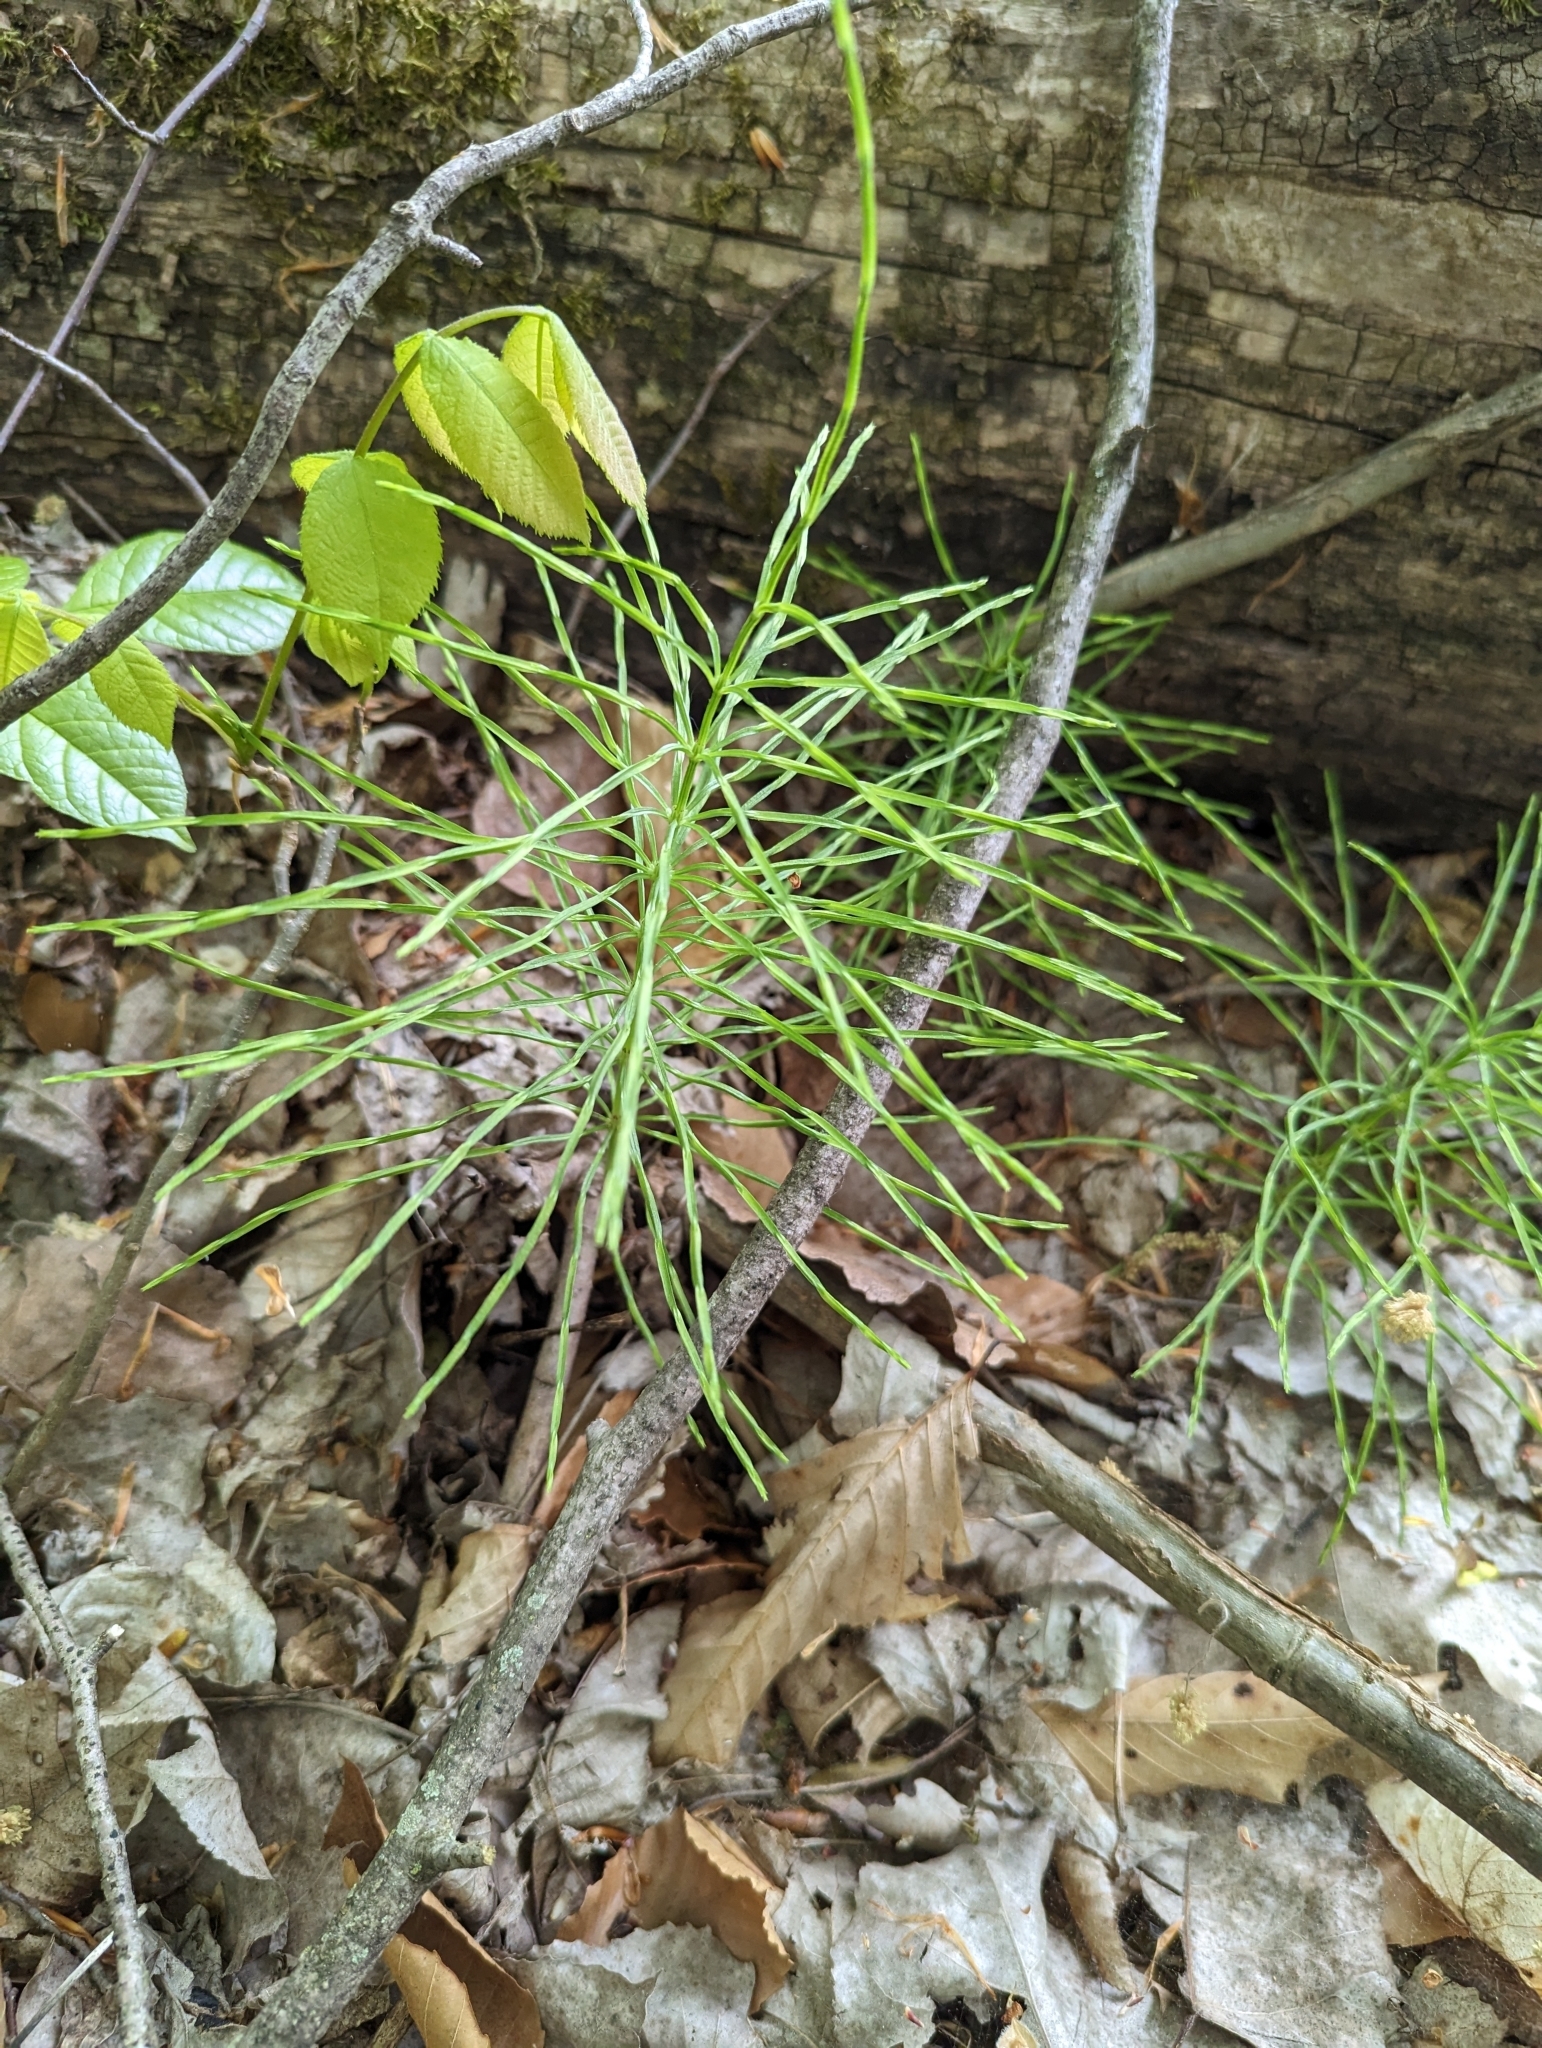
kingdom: Plantae
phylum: Tracheophyta
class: Polypodiopsida
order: Equisetales
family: Equisetaceae
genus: Equisetum
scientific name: Equisetum arvense
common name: Field horsetail
